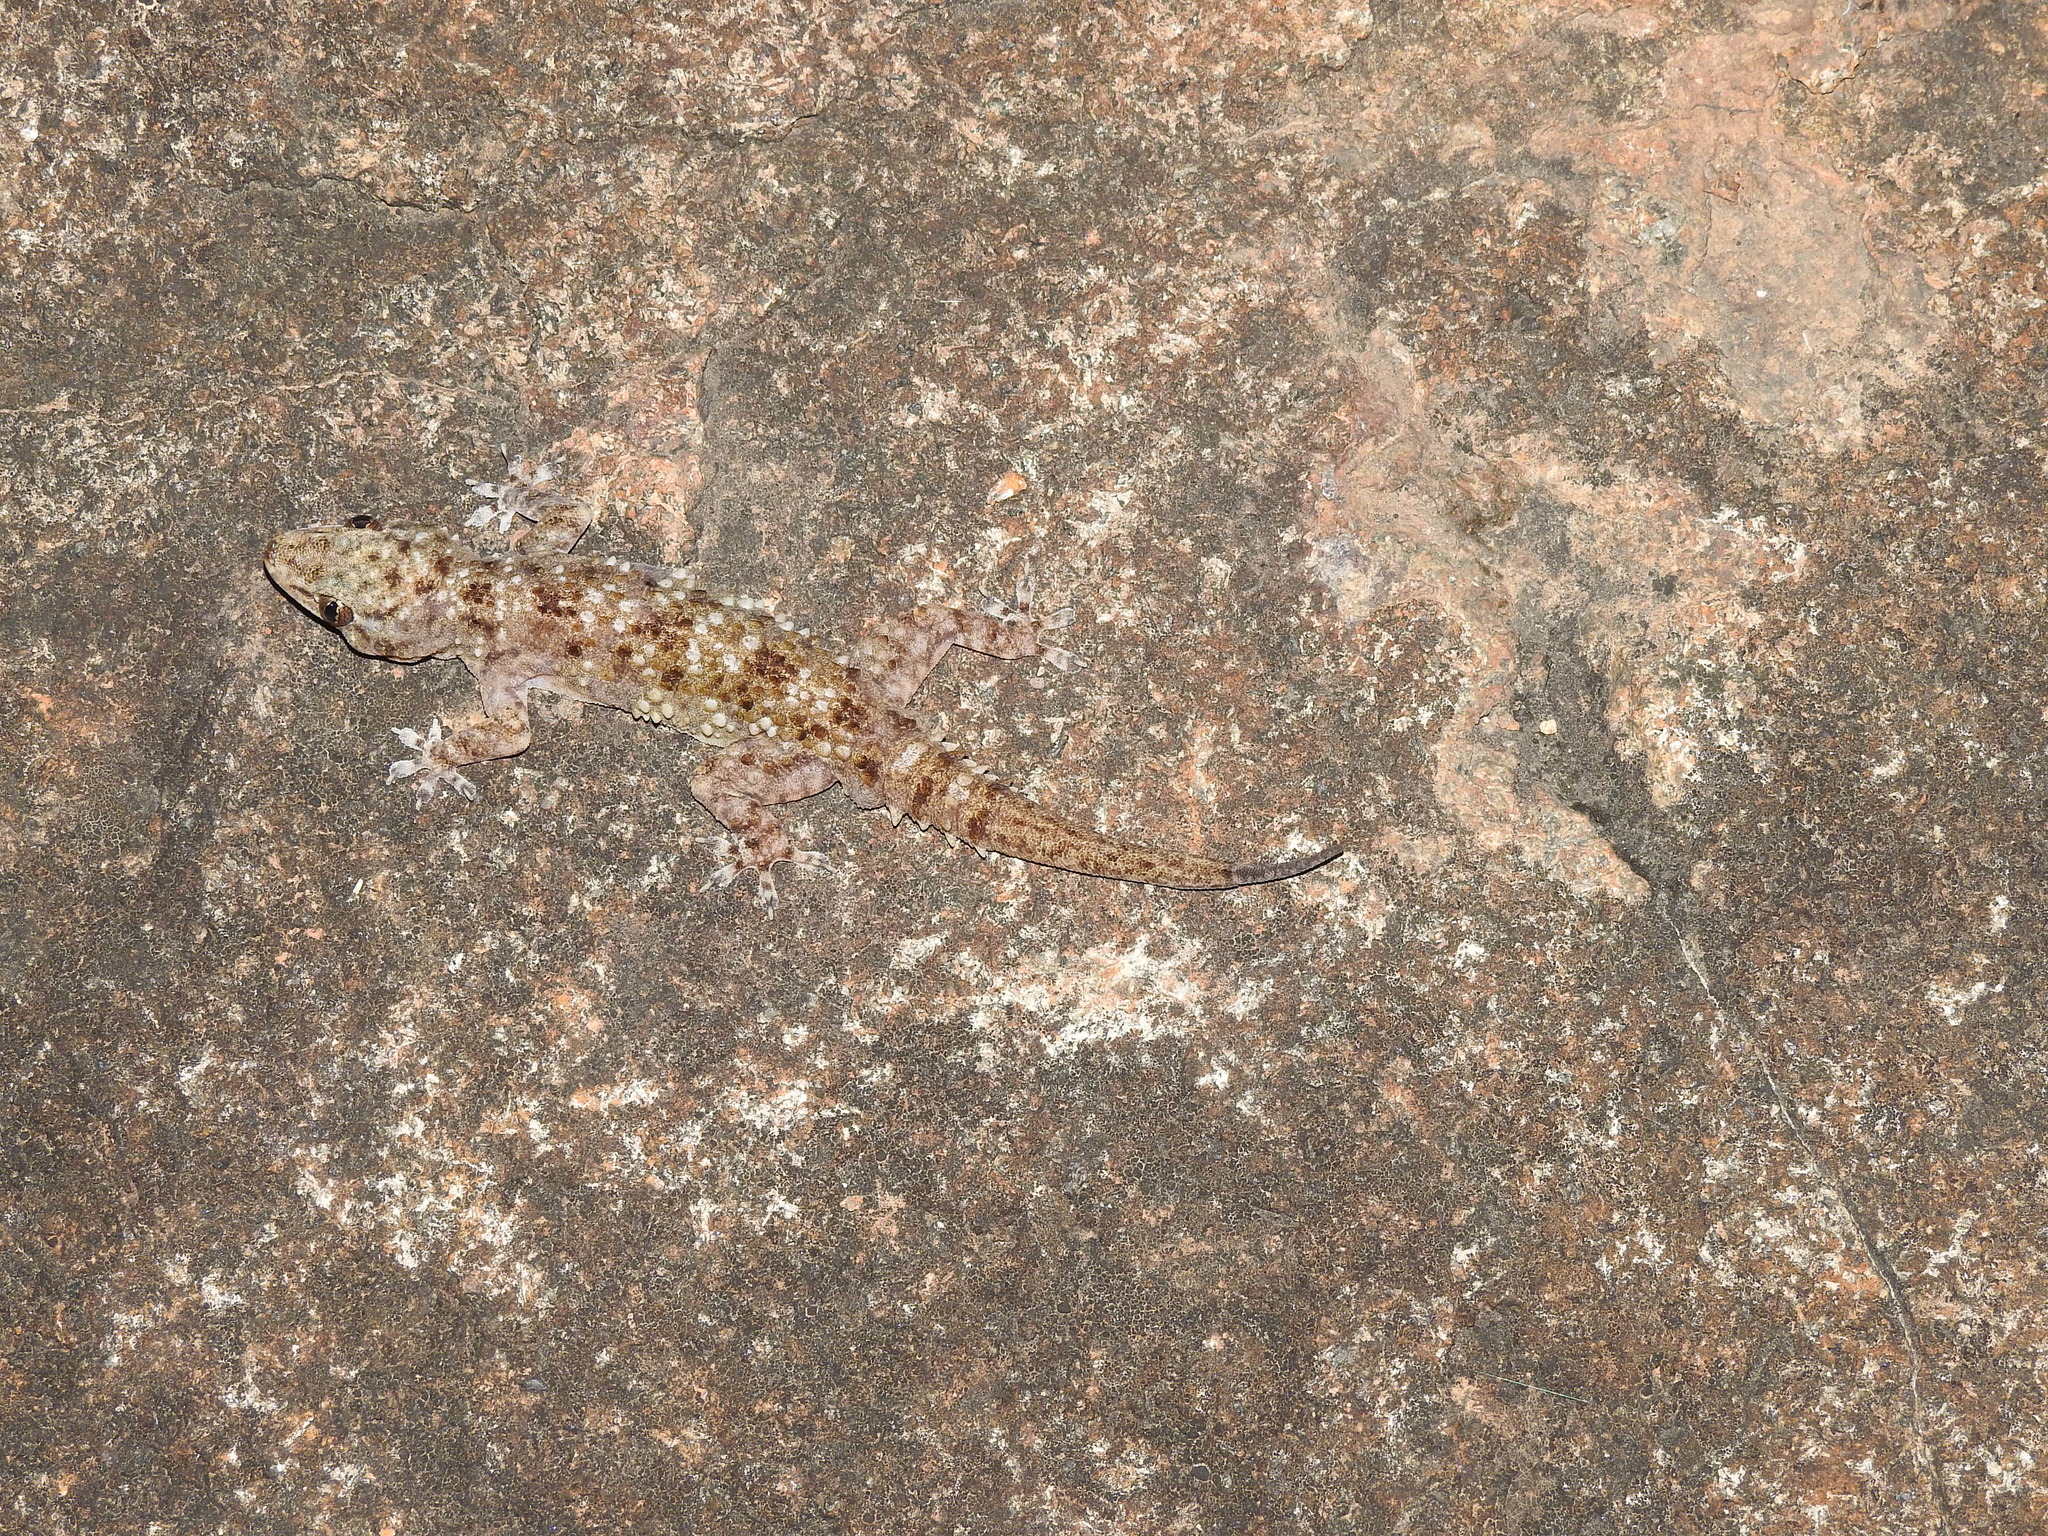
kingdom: Animalia
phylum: Chordata
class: Squamata
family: Gekkonidae
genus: Hemidactylus
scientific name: Hemidactylus rishivalleyensis
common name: Rishi valley rock gecko
